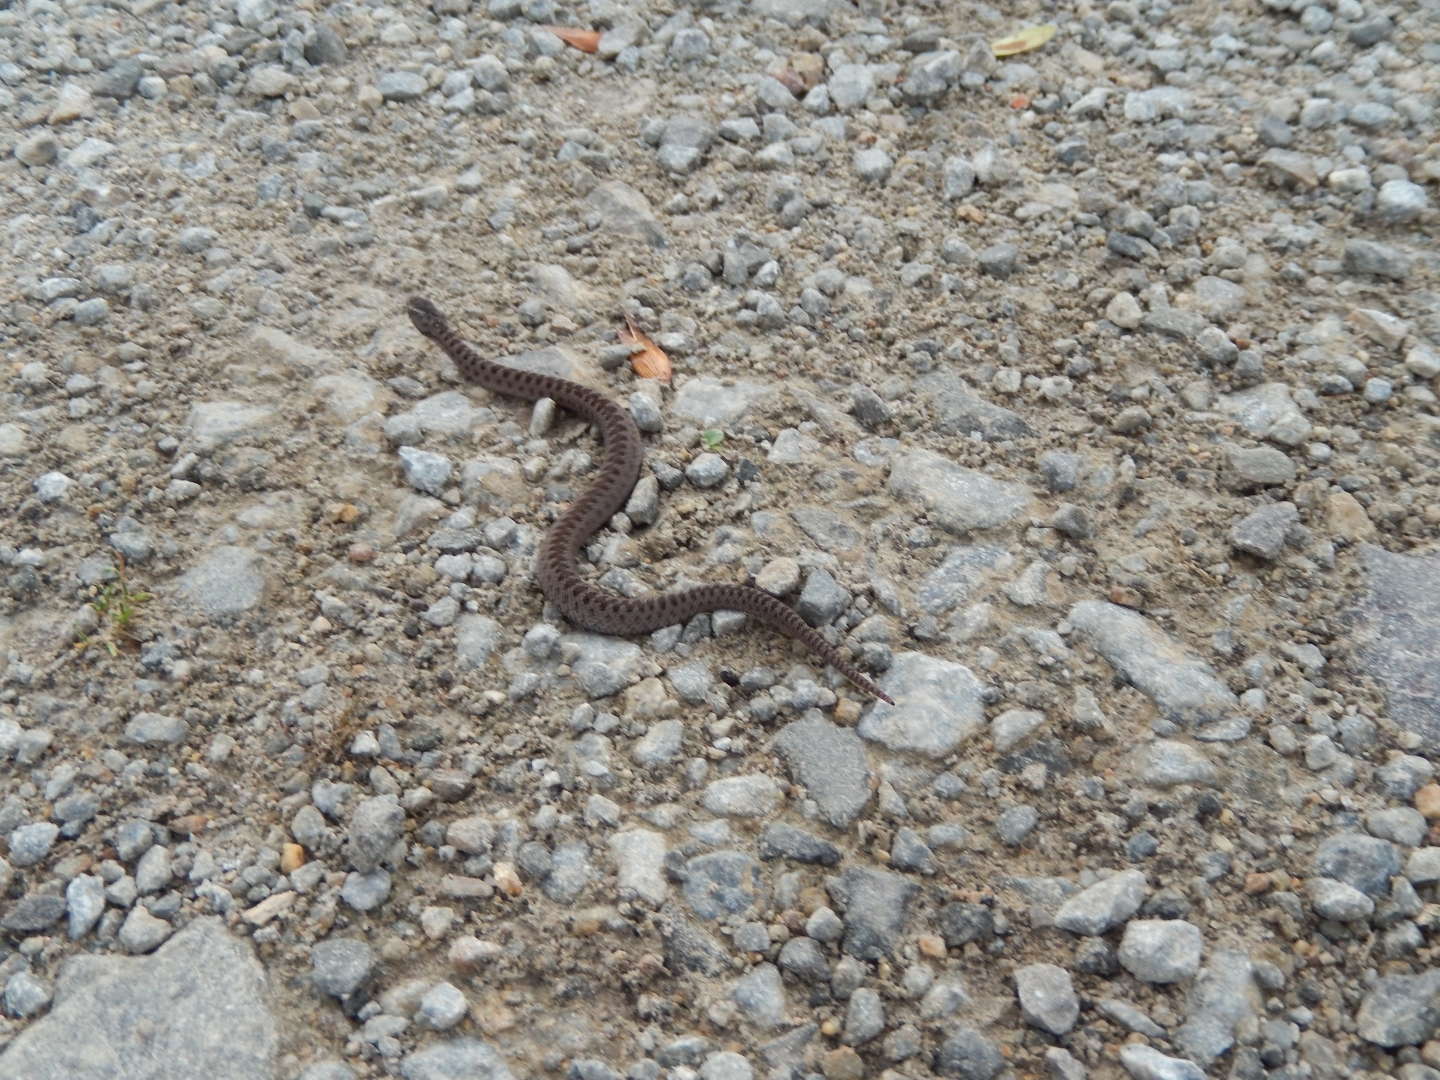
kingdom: Animalia
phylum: Chordata
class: Squamata
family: Viperidae
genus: Vipera
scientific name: Vipera berus
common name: Adder
